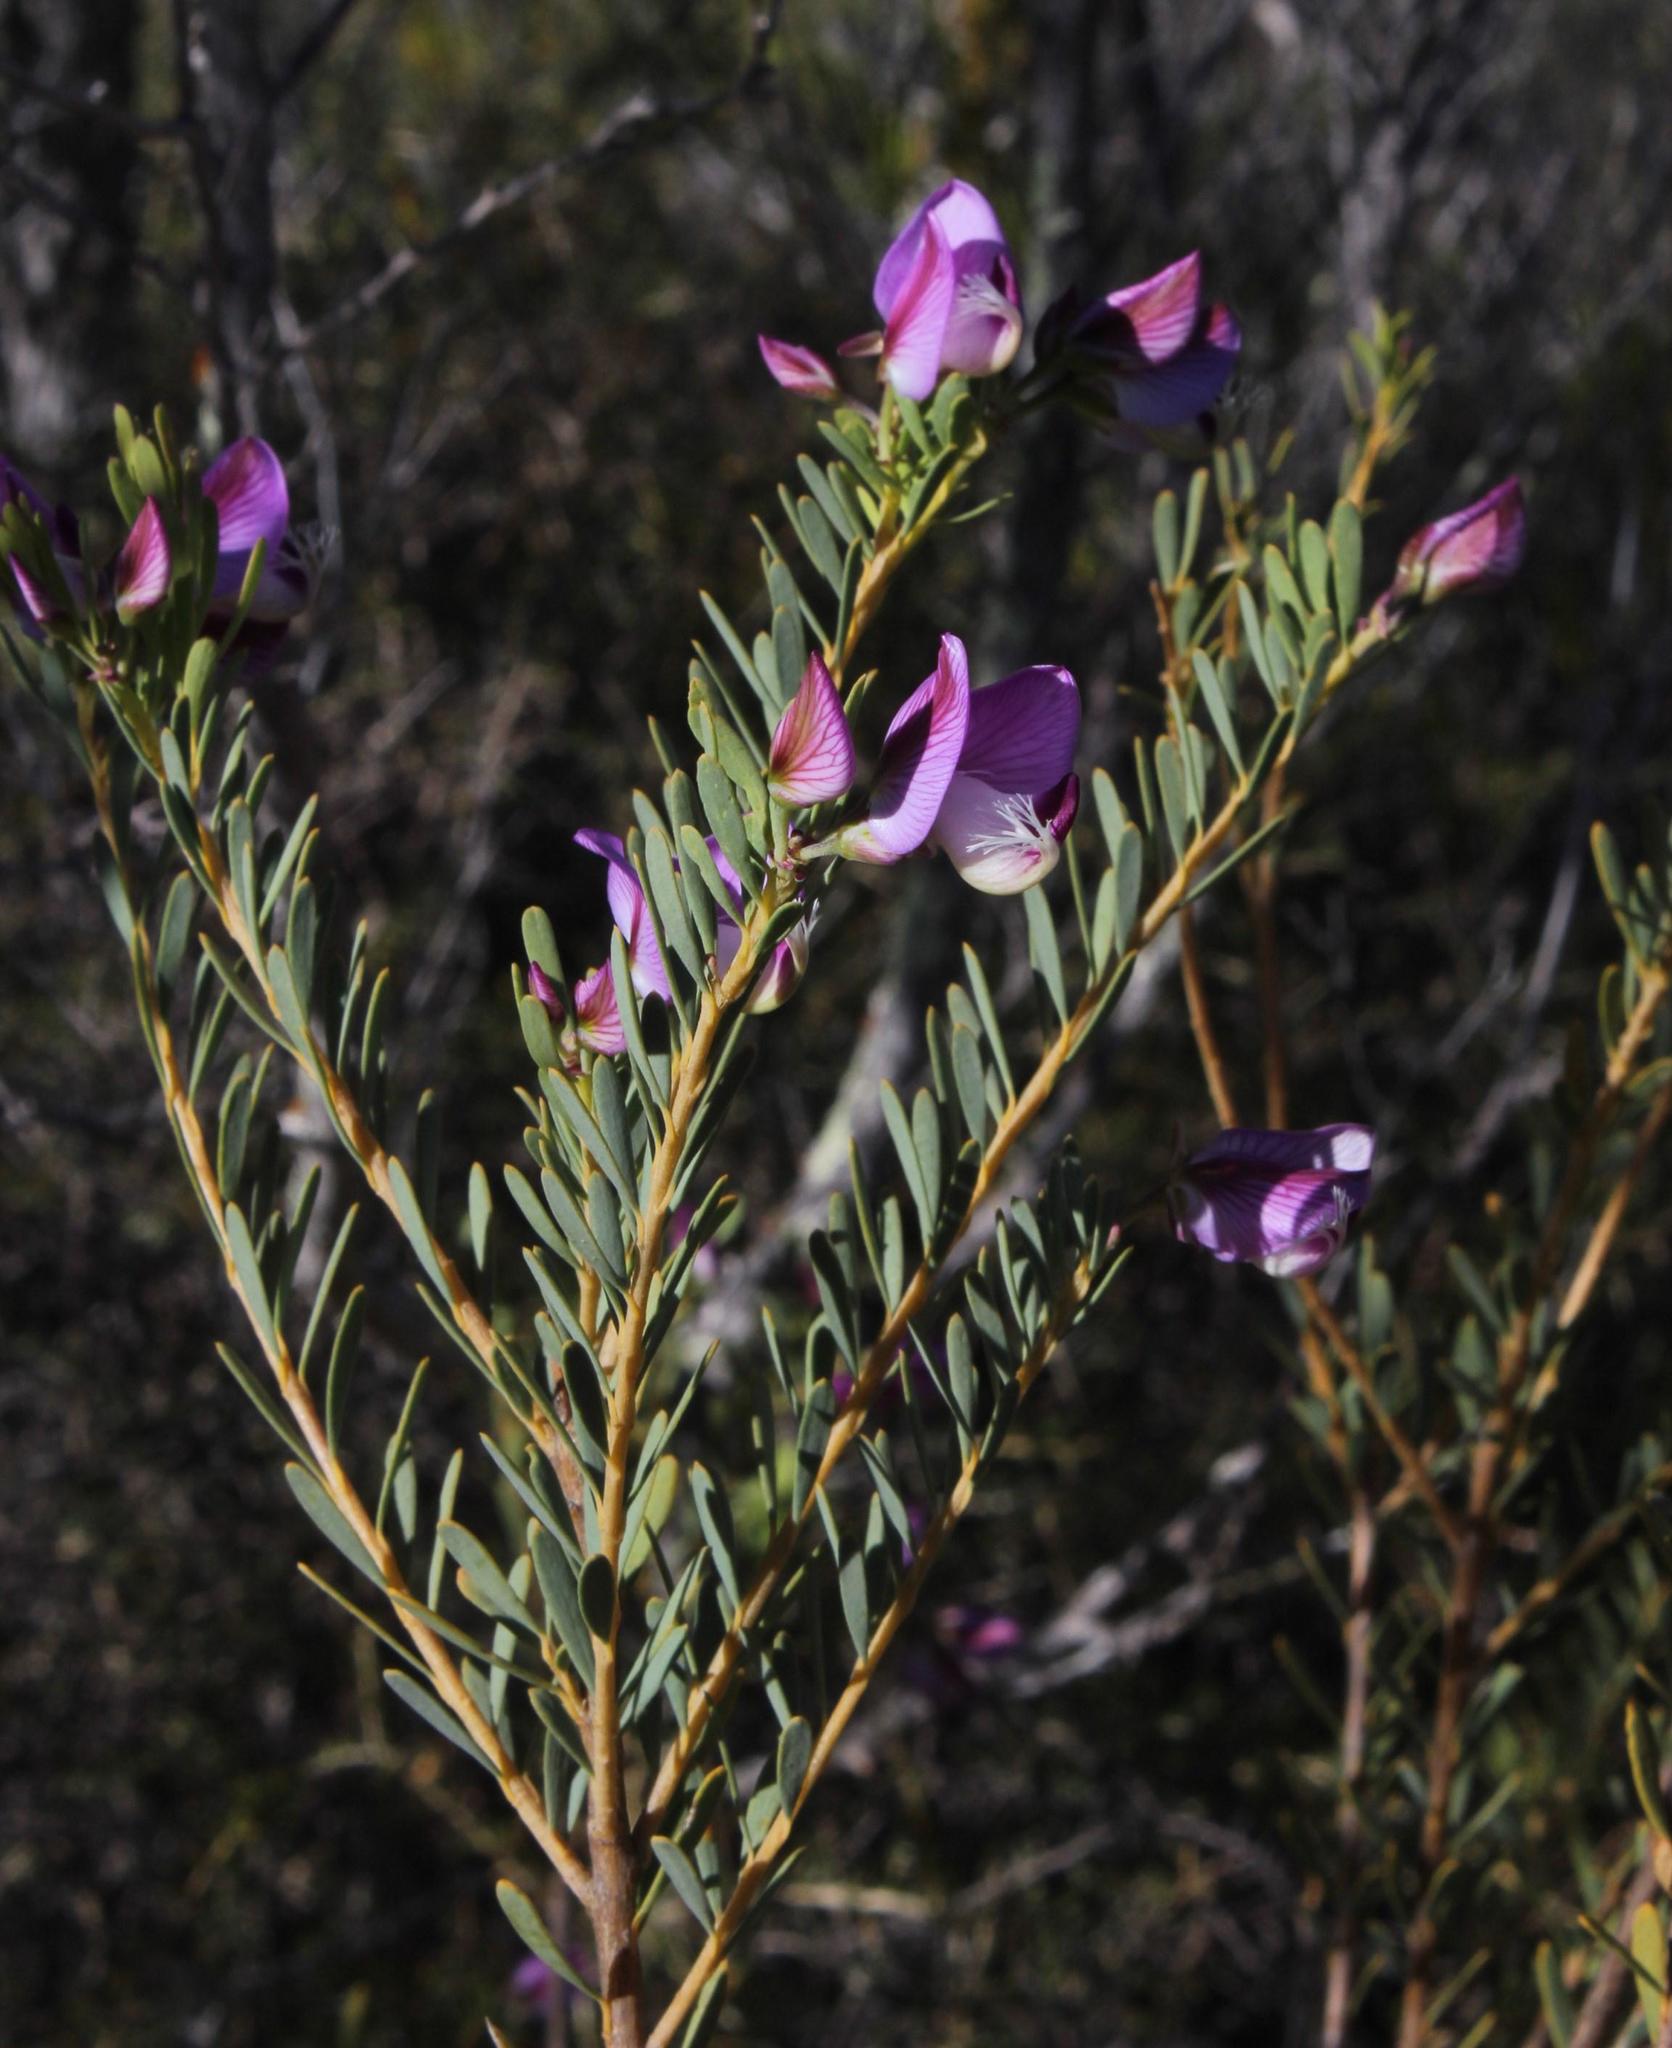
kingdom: Plantae
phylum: Tracheophyta
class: Magnoliopsida
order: Fabales
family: Polygalaceae
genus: Polygala
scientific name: Polygala myrtifolia
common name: Myrtle-leaf milkwort
